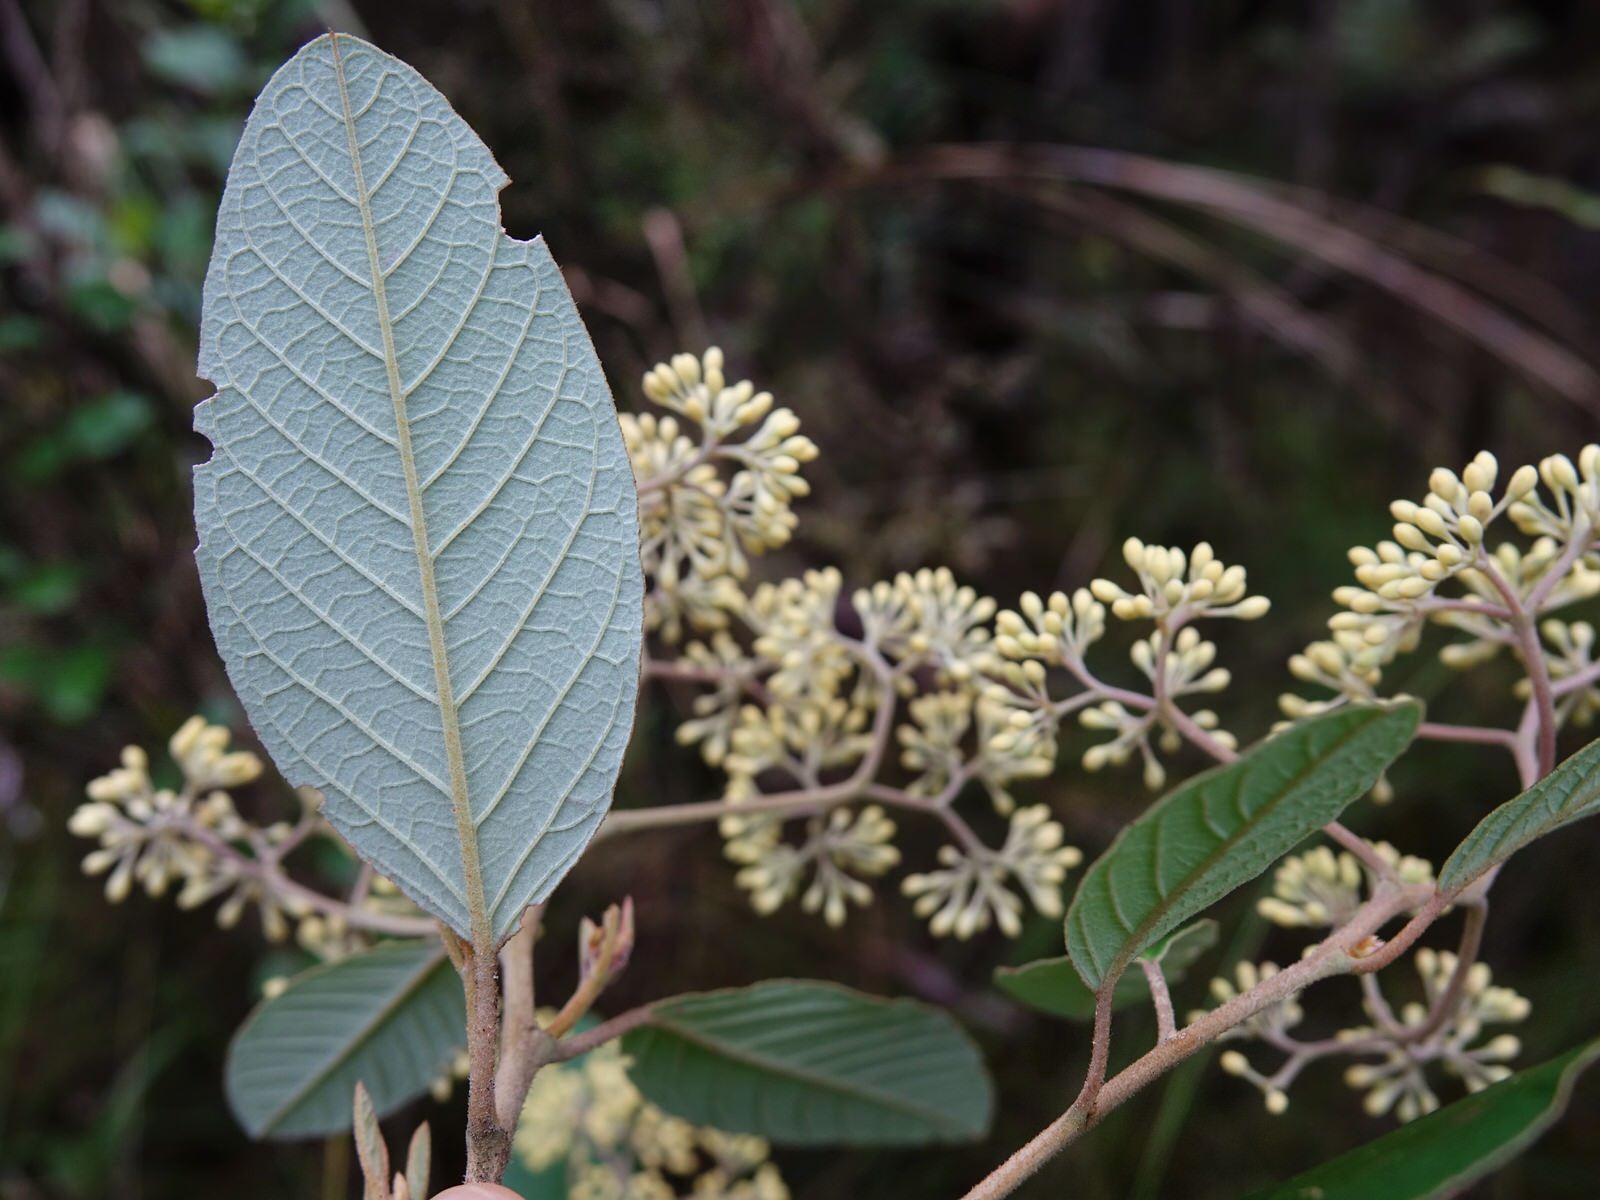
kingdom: Plantae
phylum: Tracheophyta
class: Magnoliopsida
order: Rosales
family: Rhamnaceae
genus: Pomaderris
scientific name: Pomaderris kumeraho
